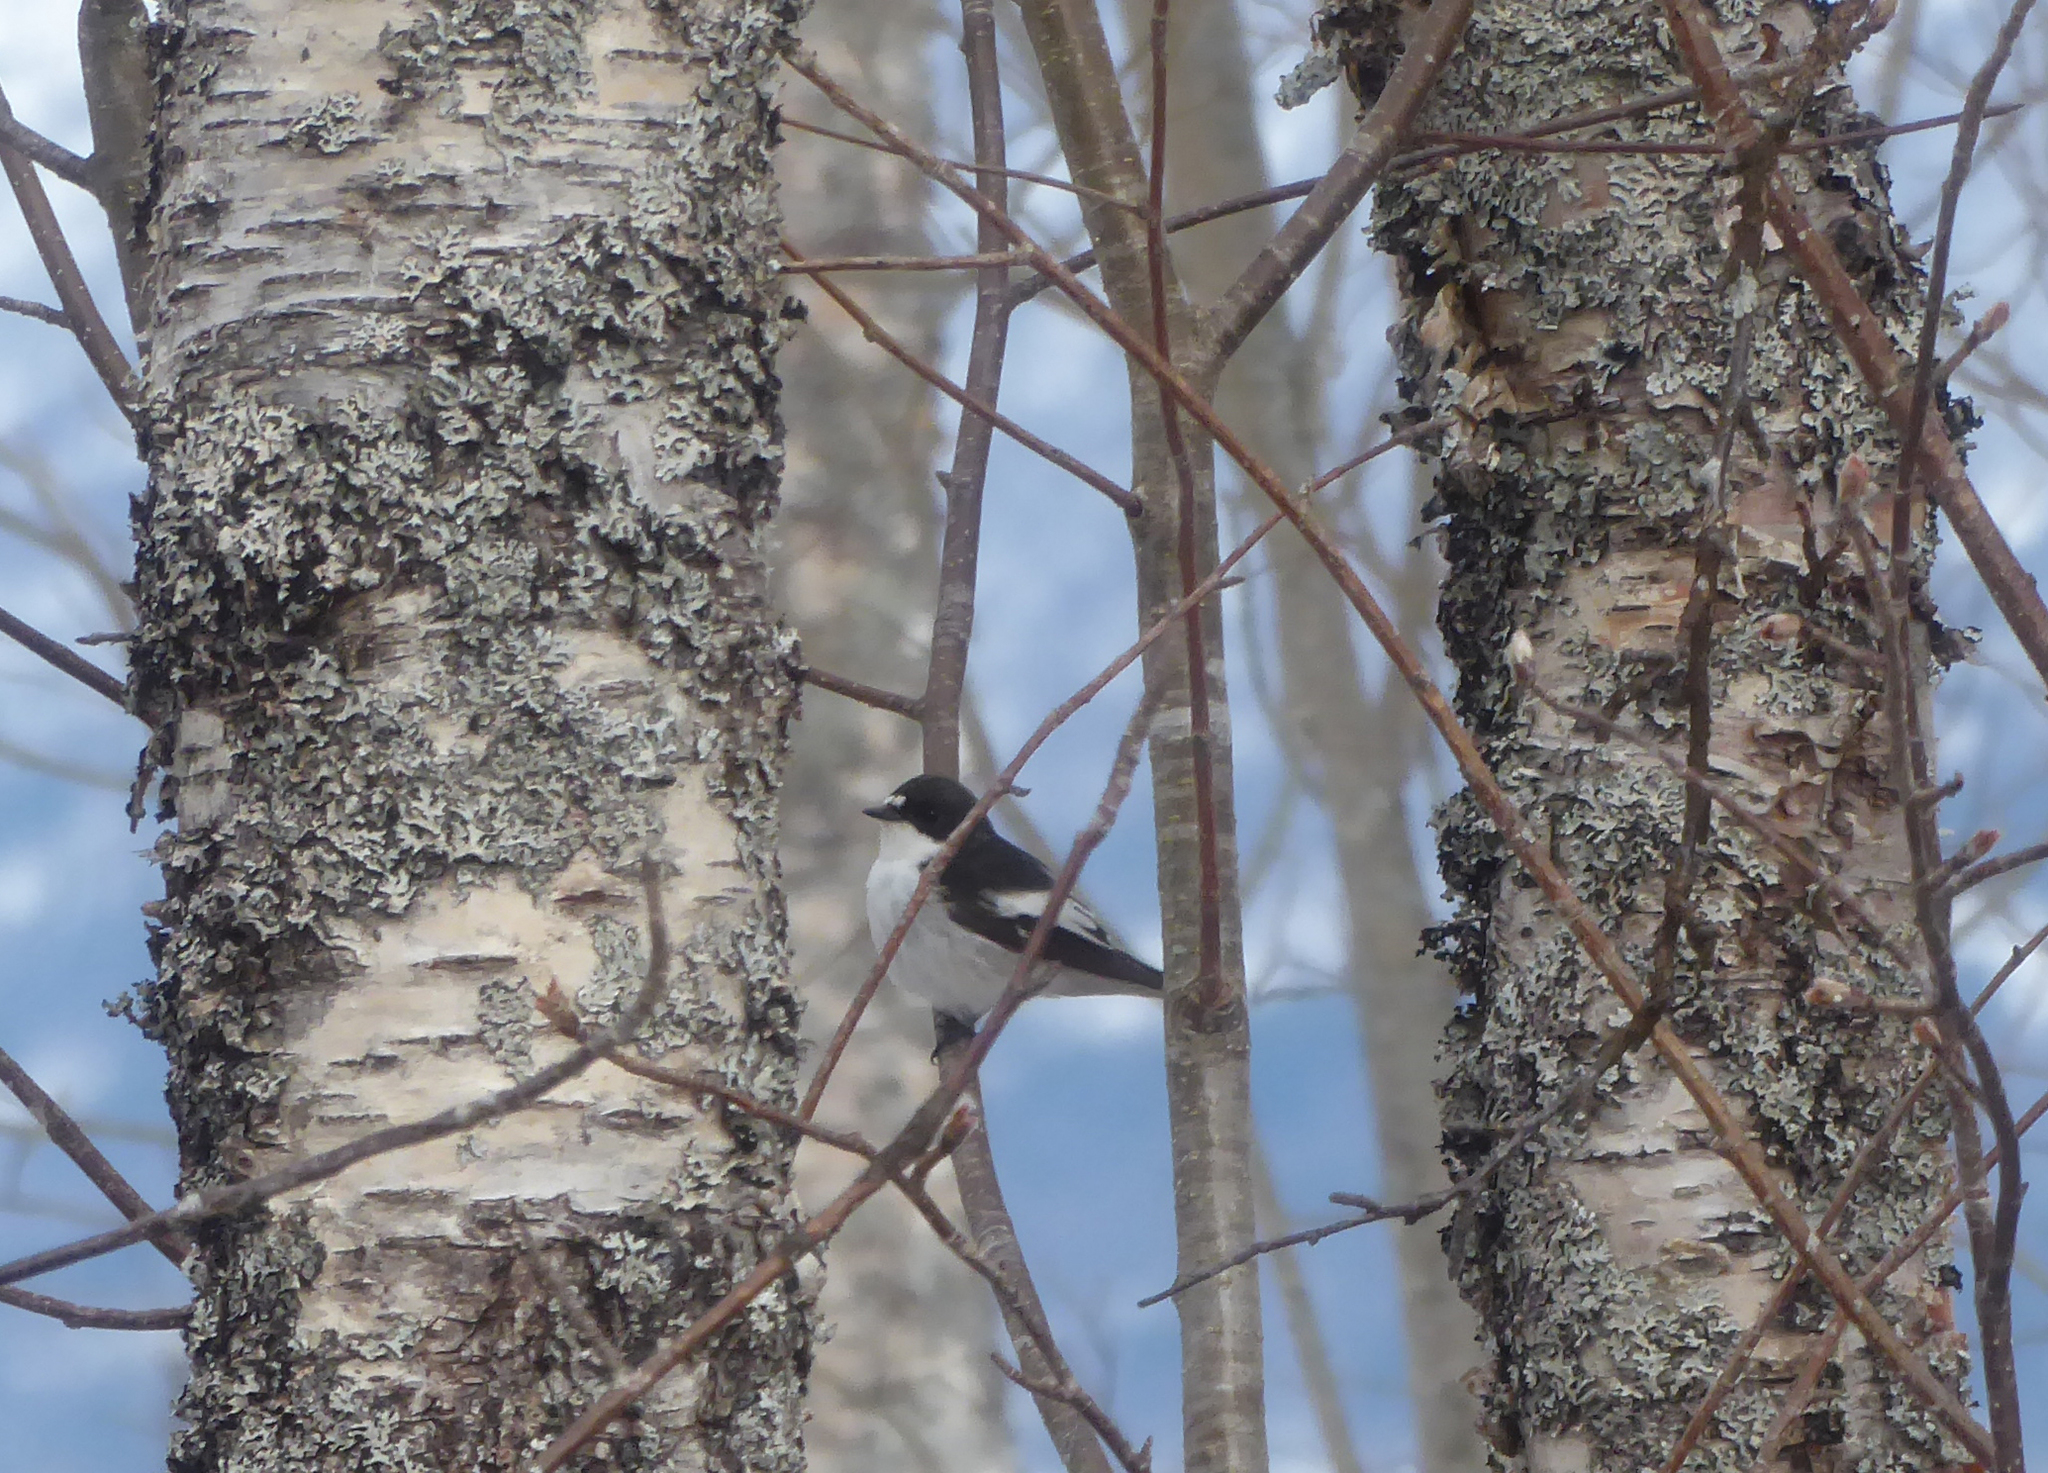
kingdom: Animalia
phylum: Chordata
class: Aves
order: Passeriformes
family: Muscicapidae
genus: Ficedula
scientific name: Ficedula hypoleuca
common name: European pied flycatcher
